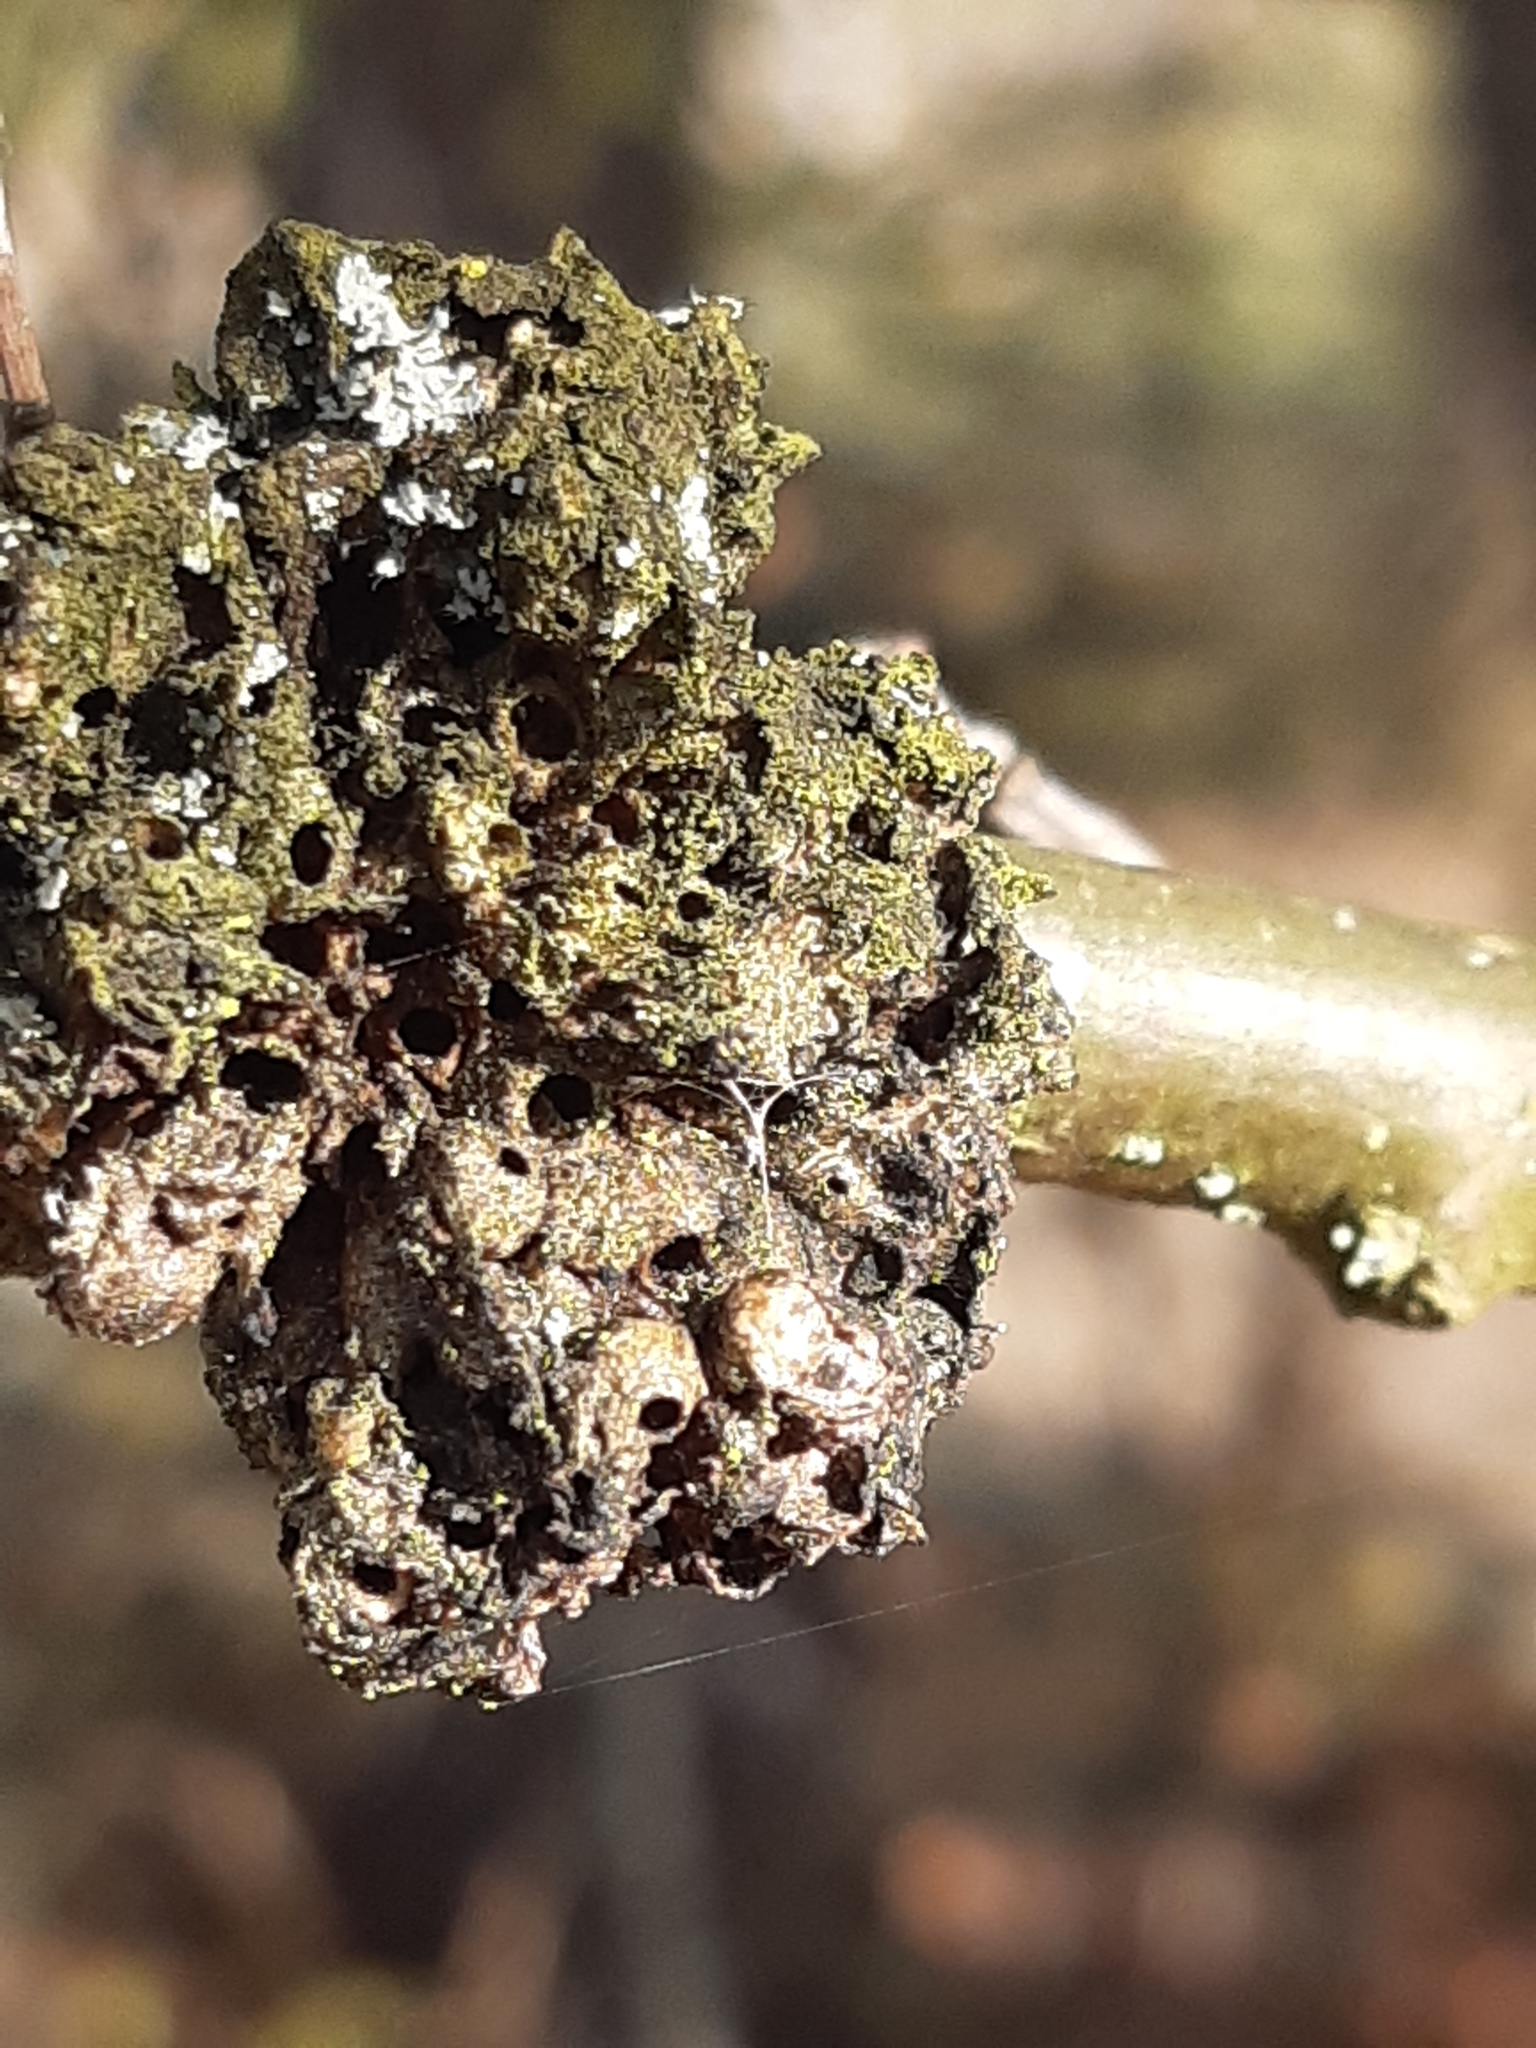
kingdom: Animalia
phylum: Arthropoda
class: Insecta
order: Hymenoptera
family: Cynipidae
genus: Biorhiza
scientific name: Biorhiza pallida
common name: Oak apple
